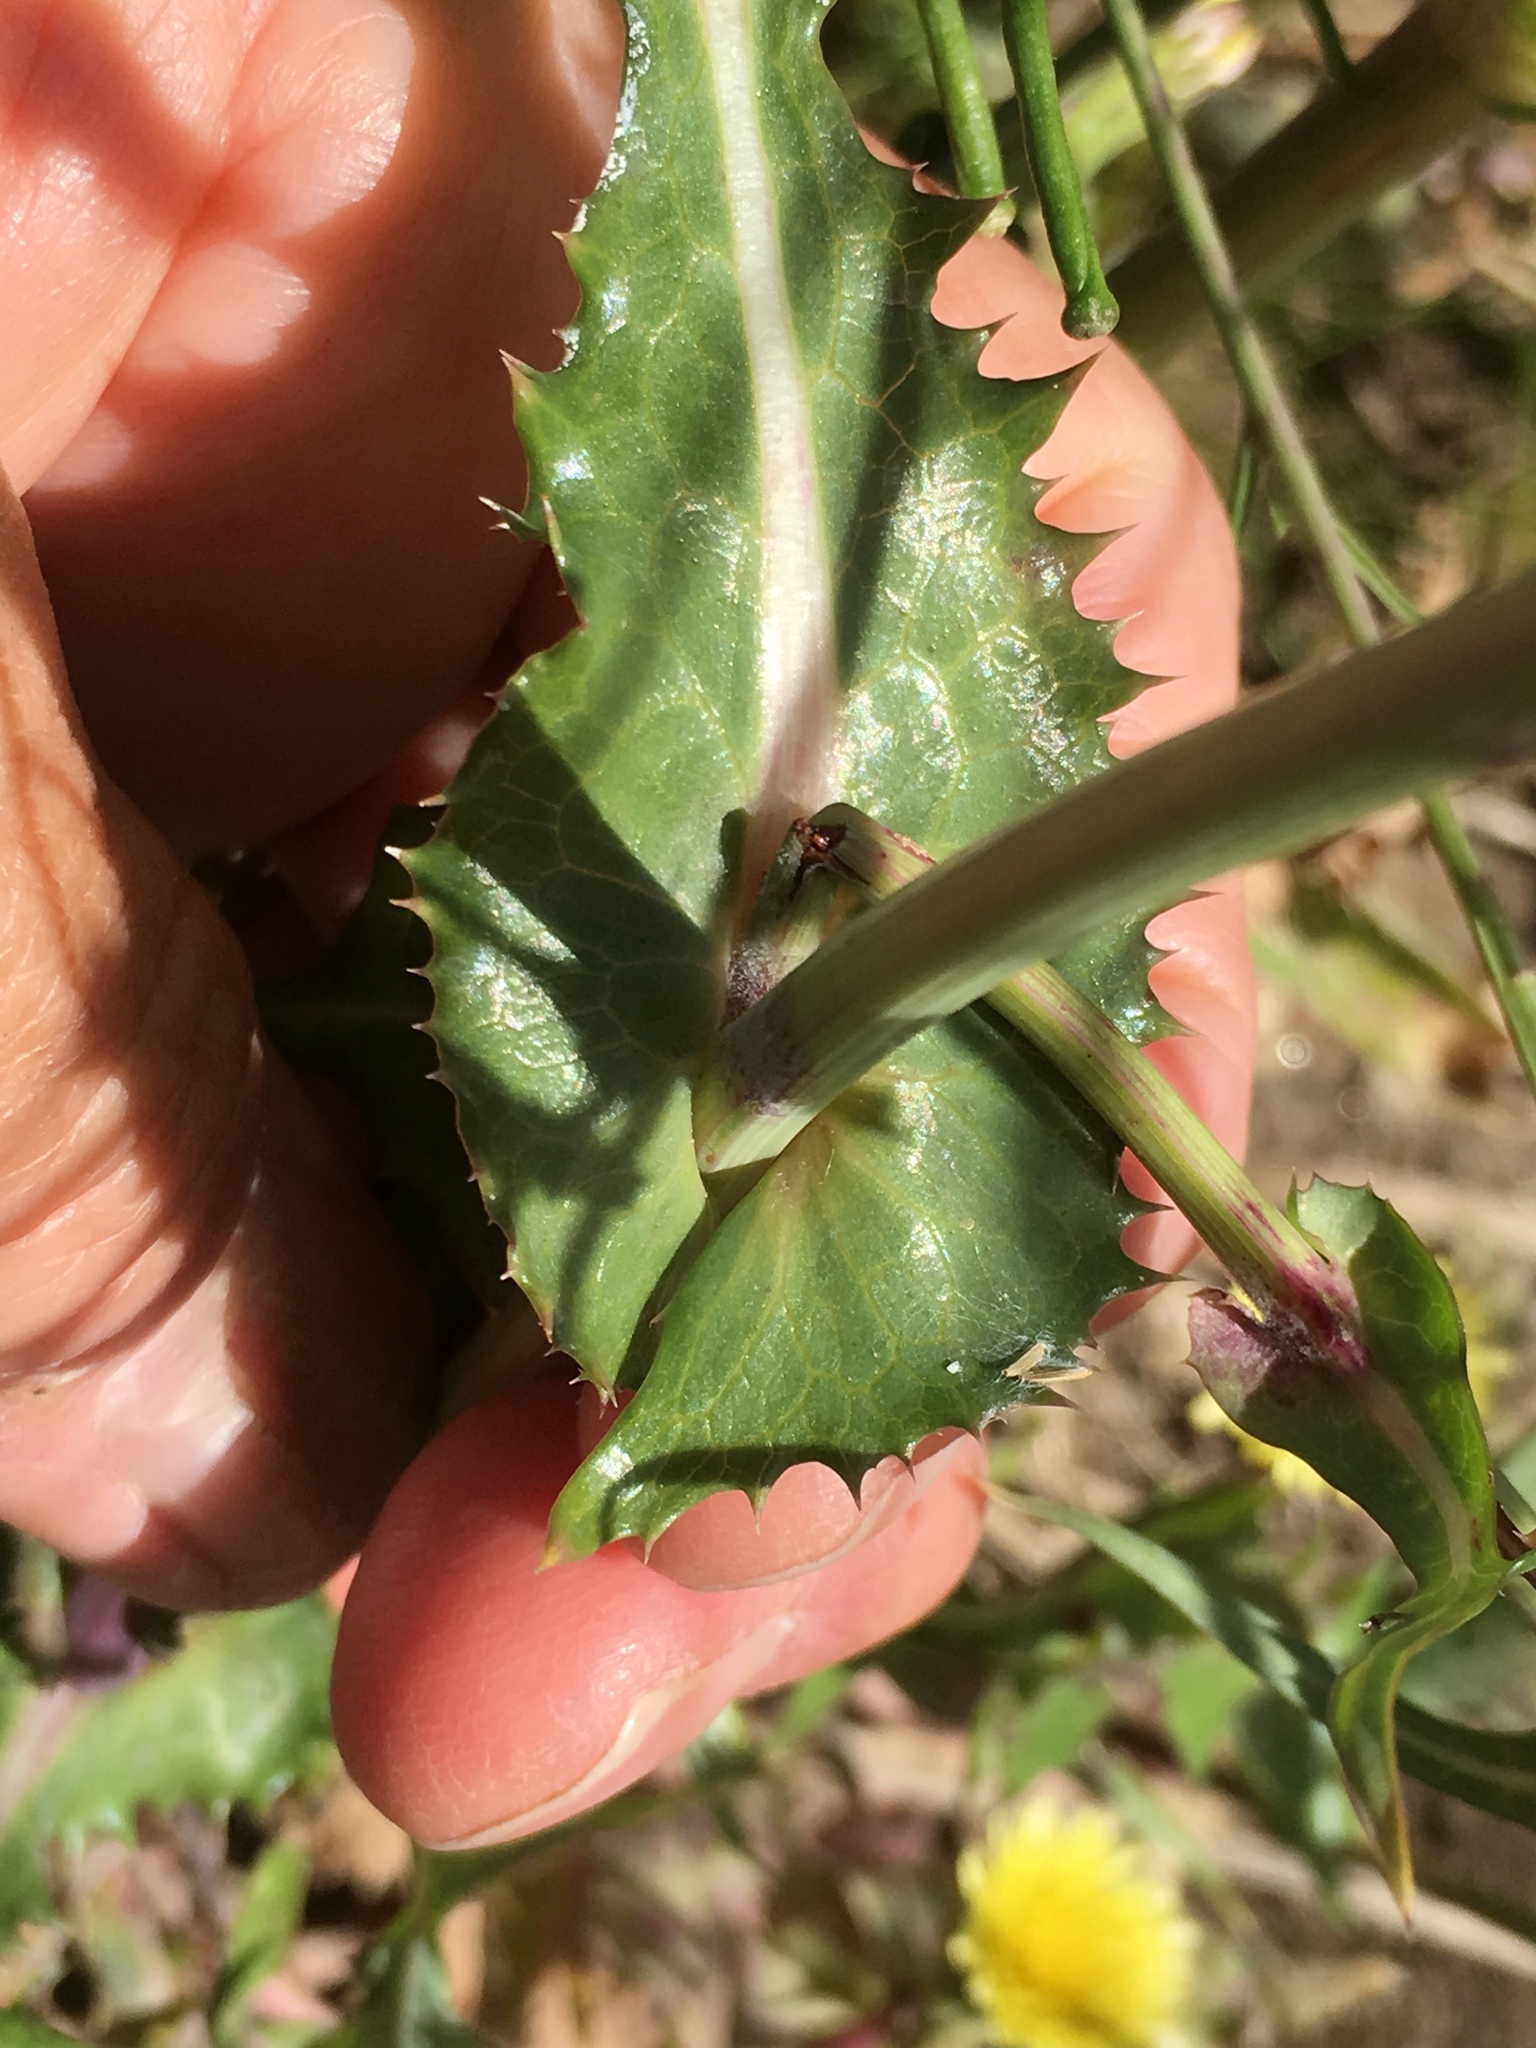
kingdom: Plantae
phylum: Tracheophyta
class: Magnoliopsida
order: Asterales
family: Asteraceae
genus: Sonchus
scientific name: Sonchus oleraceus
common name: Common sowthistle
